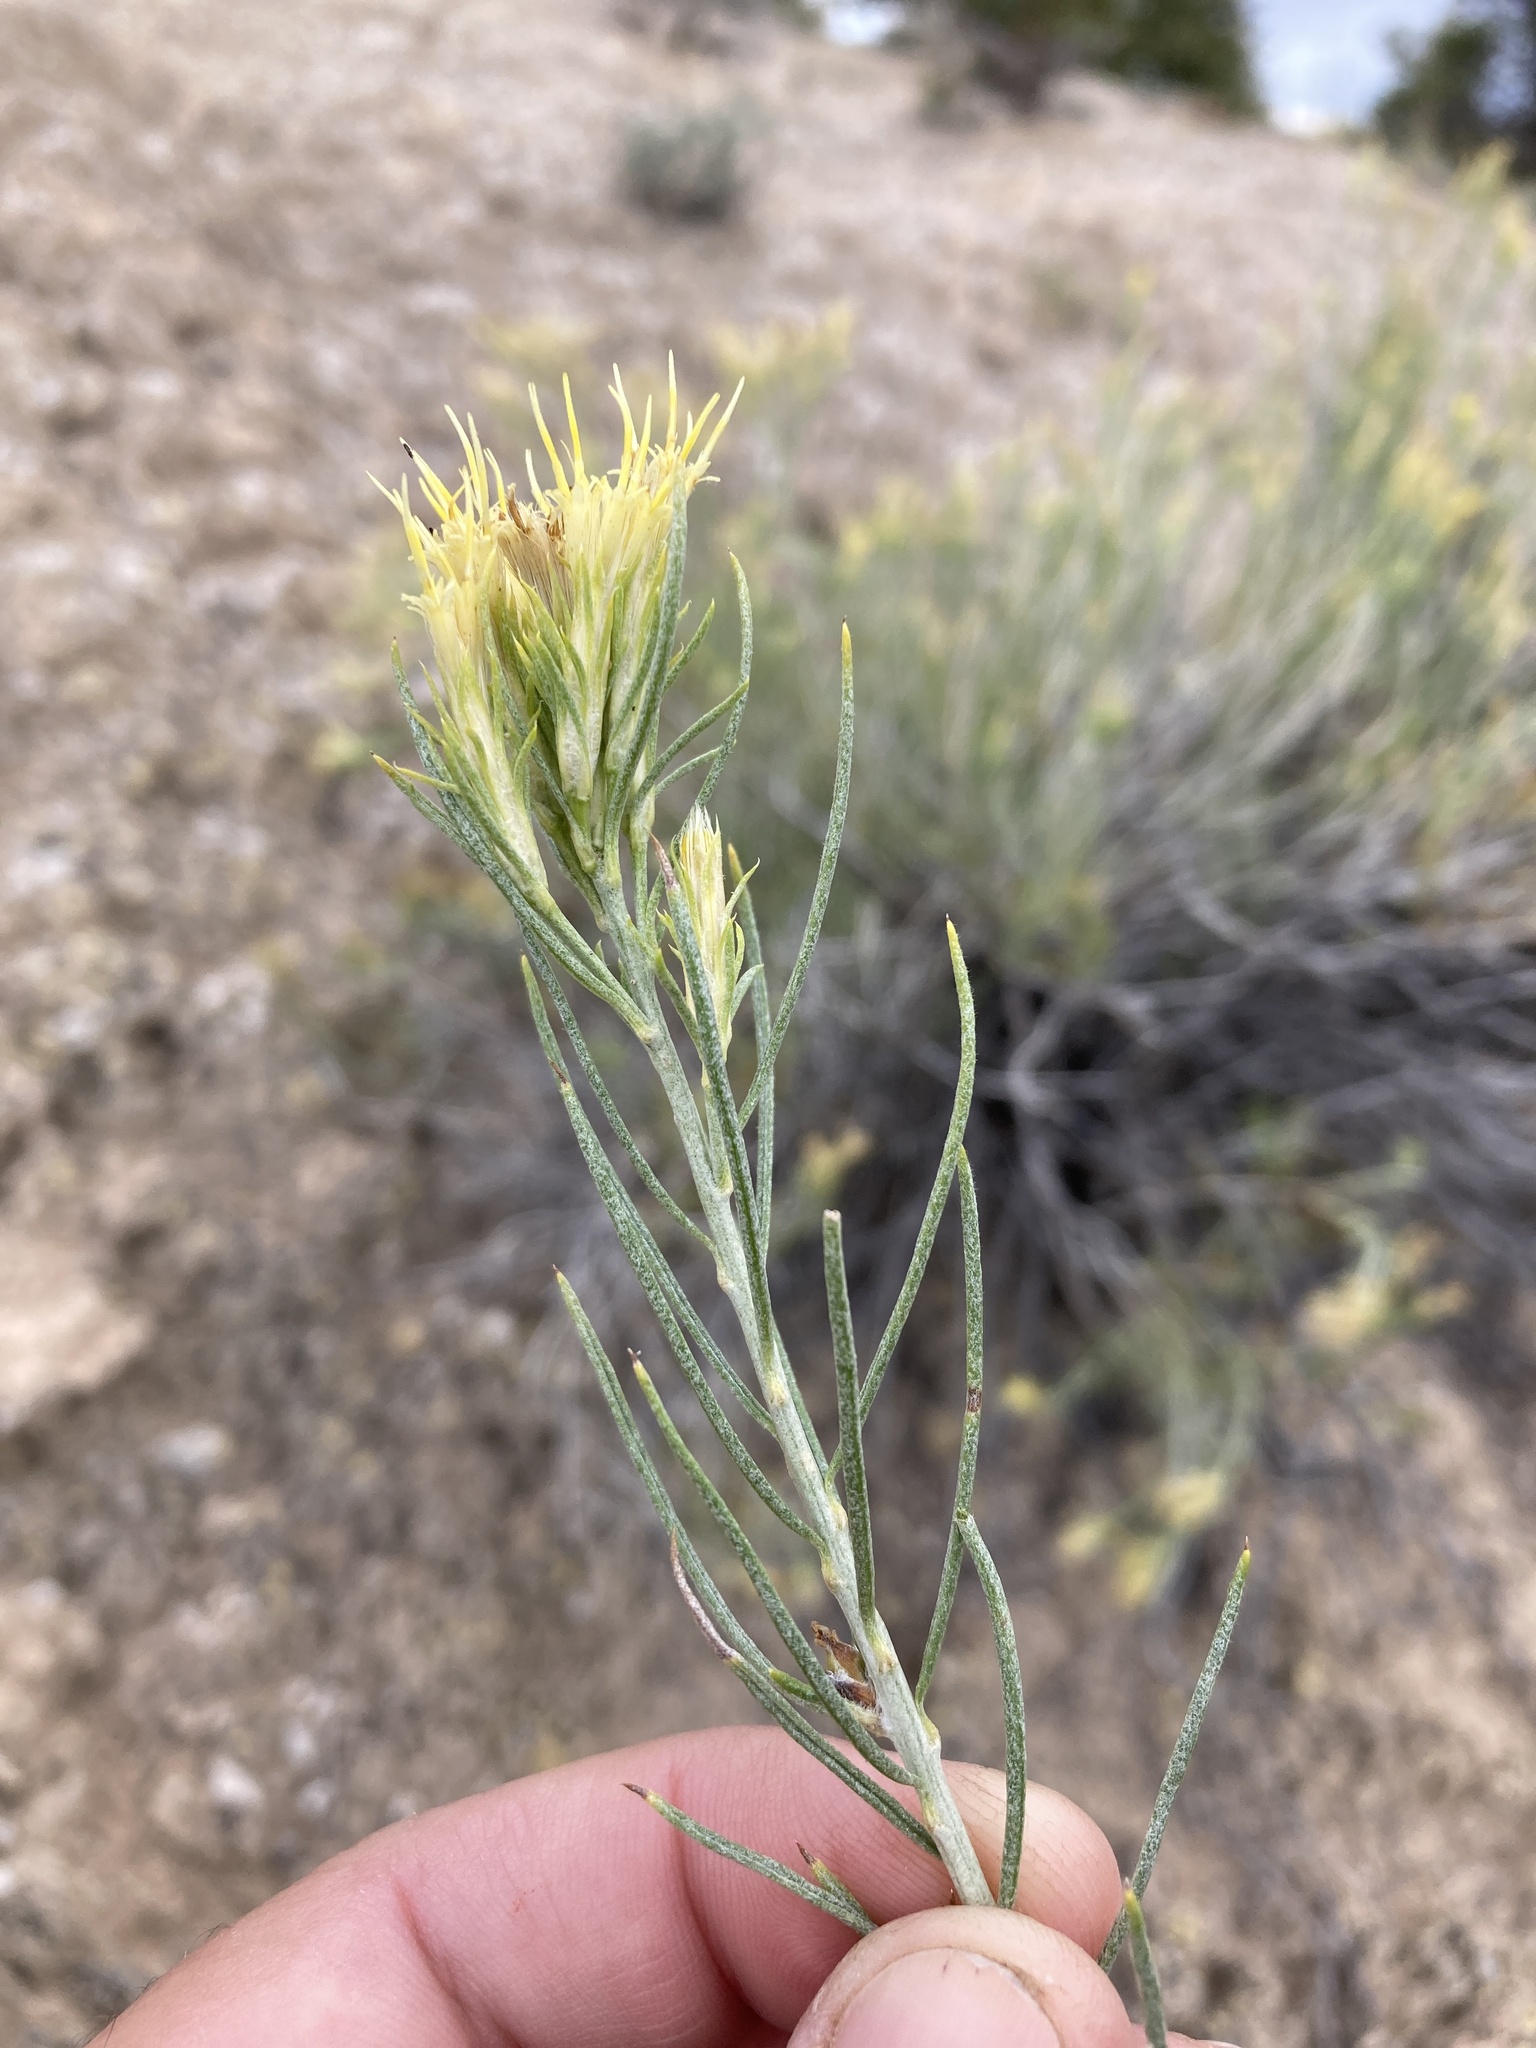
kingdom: Plantae
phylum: Tracheophyta
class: Magnoliopsida
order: Asterales
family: Asteraceae
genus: Ericameria
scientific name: Ericameria parryi
